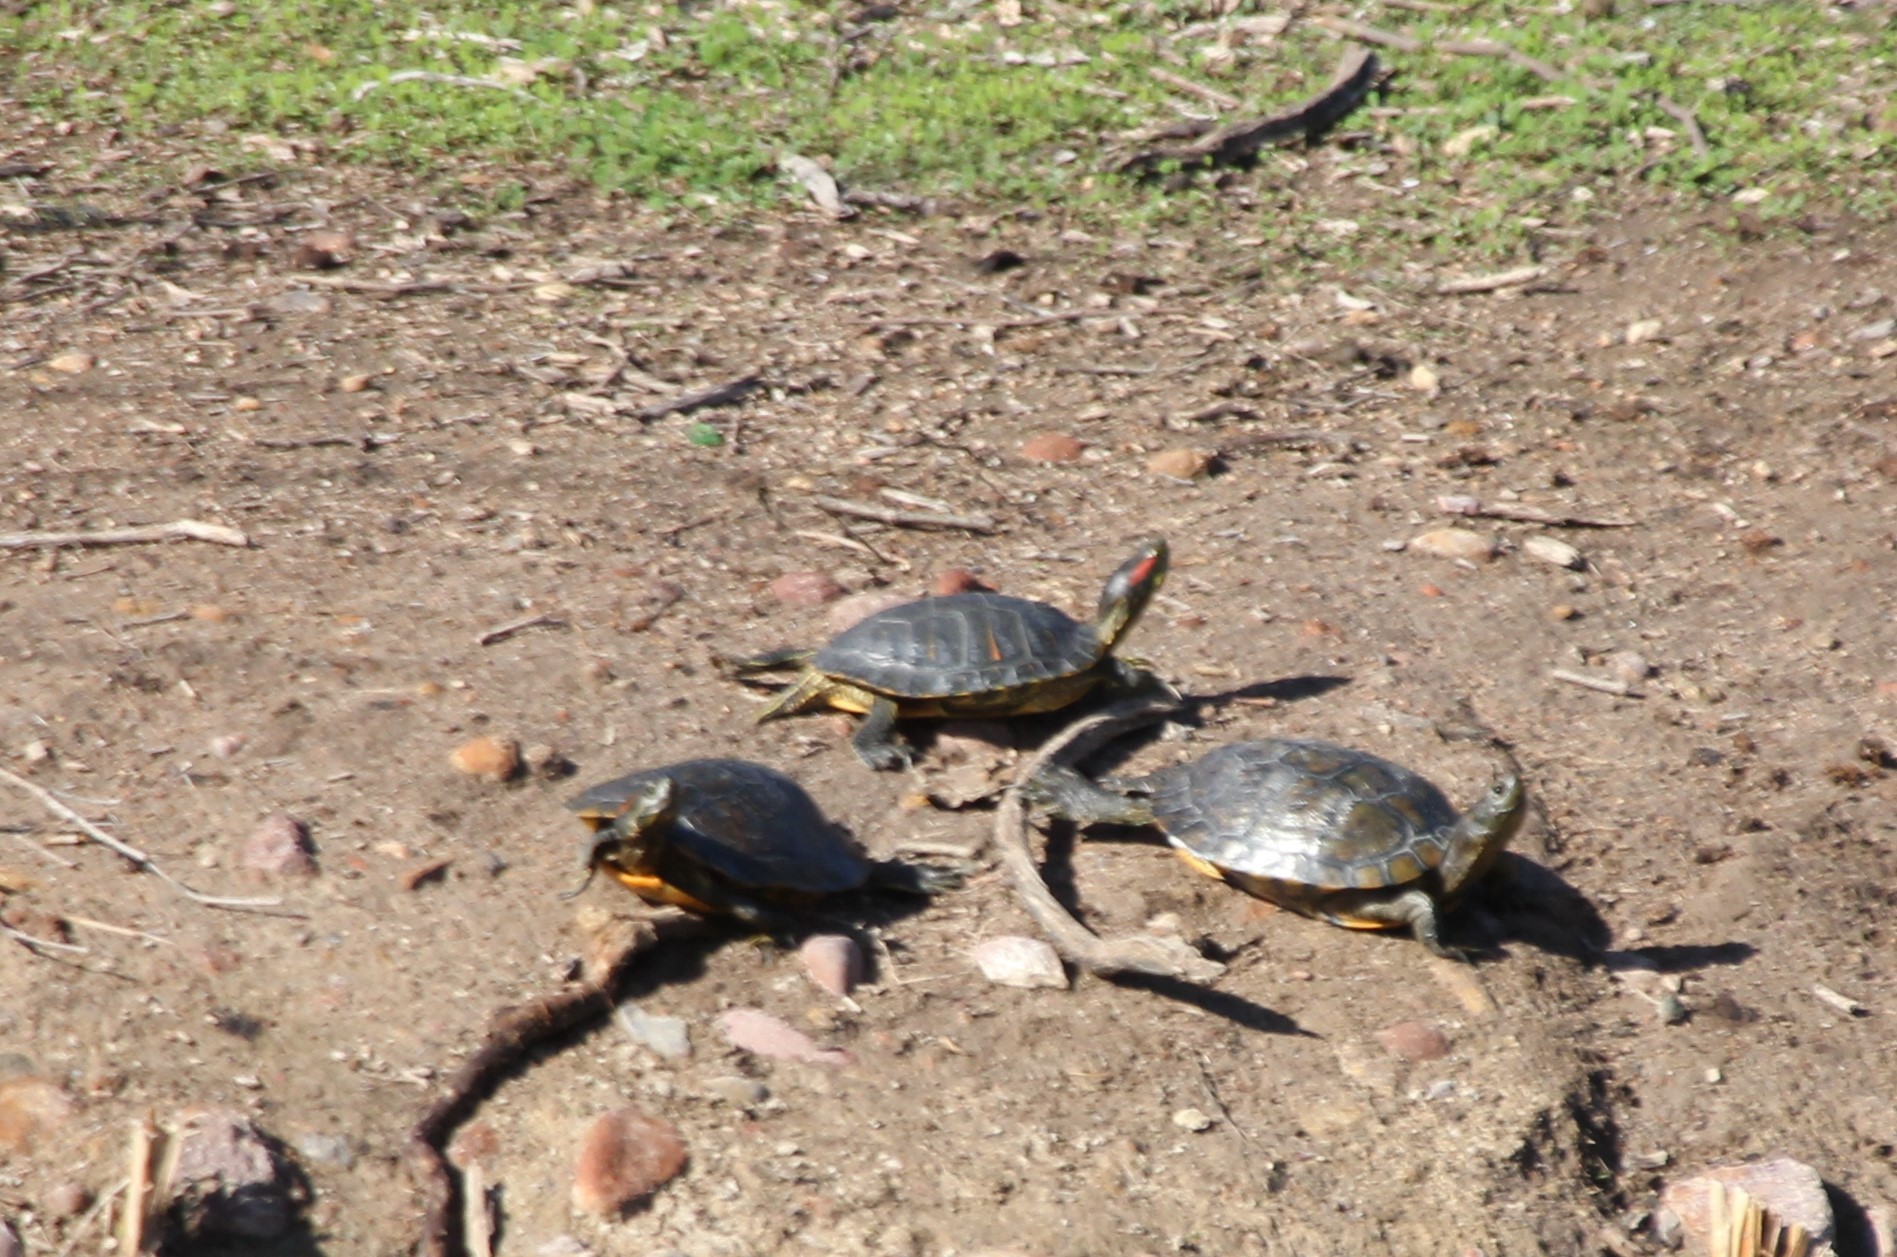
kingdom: Animalia
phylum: Chordata
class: Testudines
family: Emydidae
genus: Trachemys
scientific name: Trachemys scripta
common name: Slider
